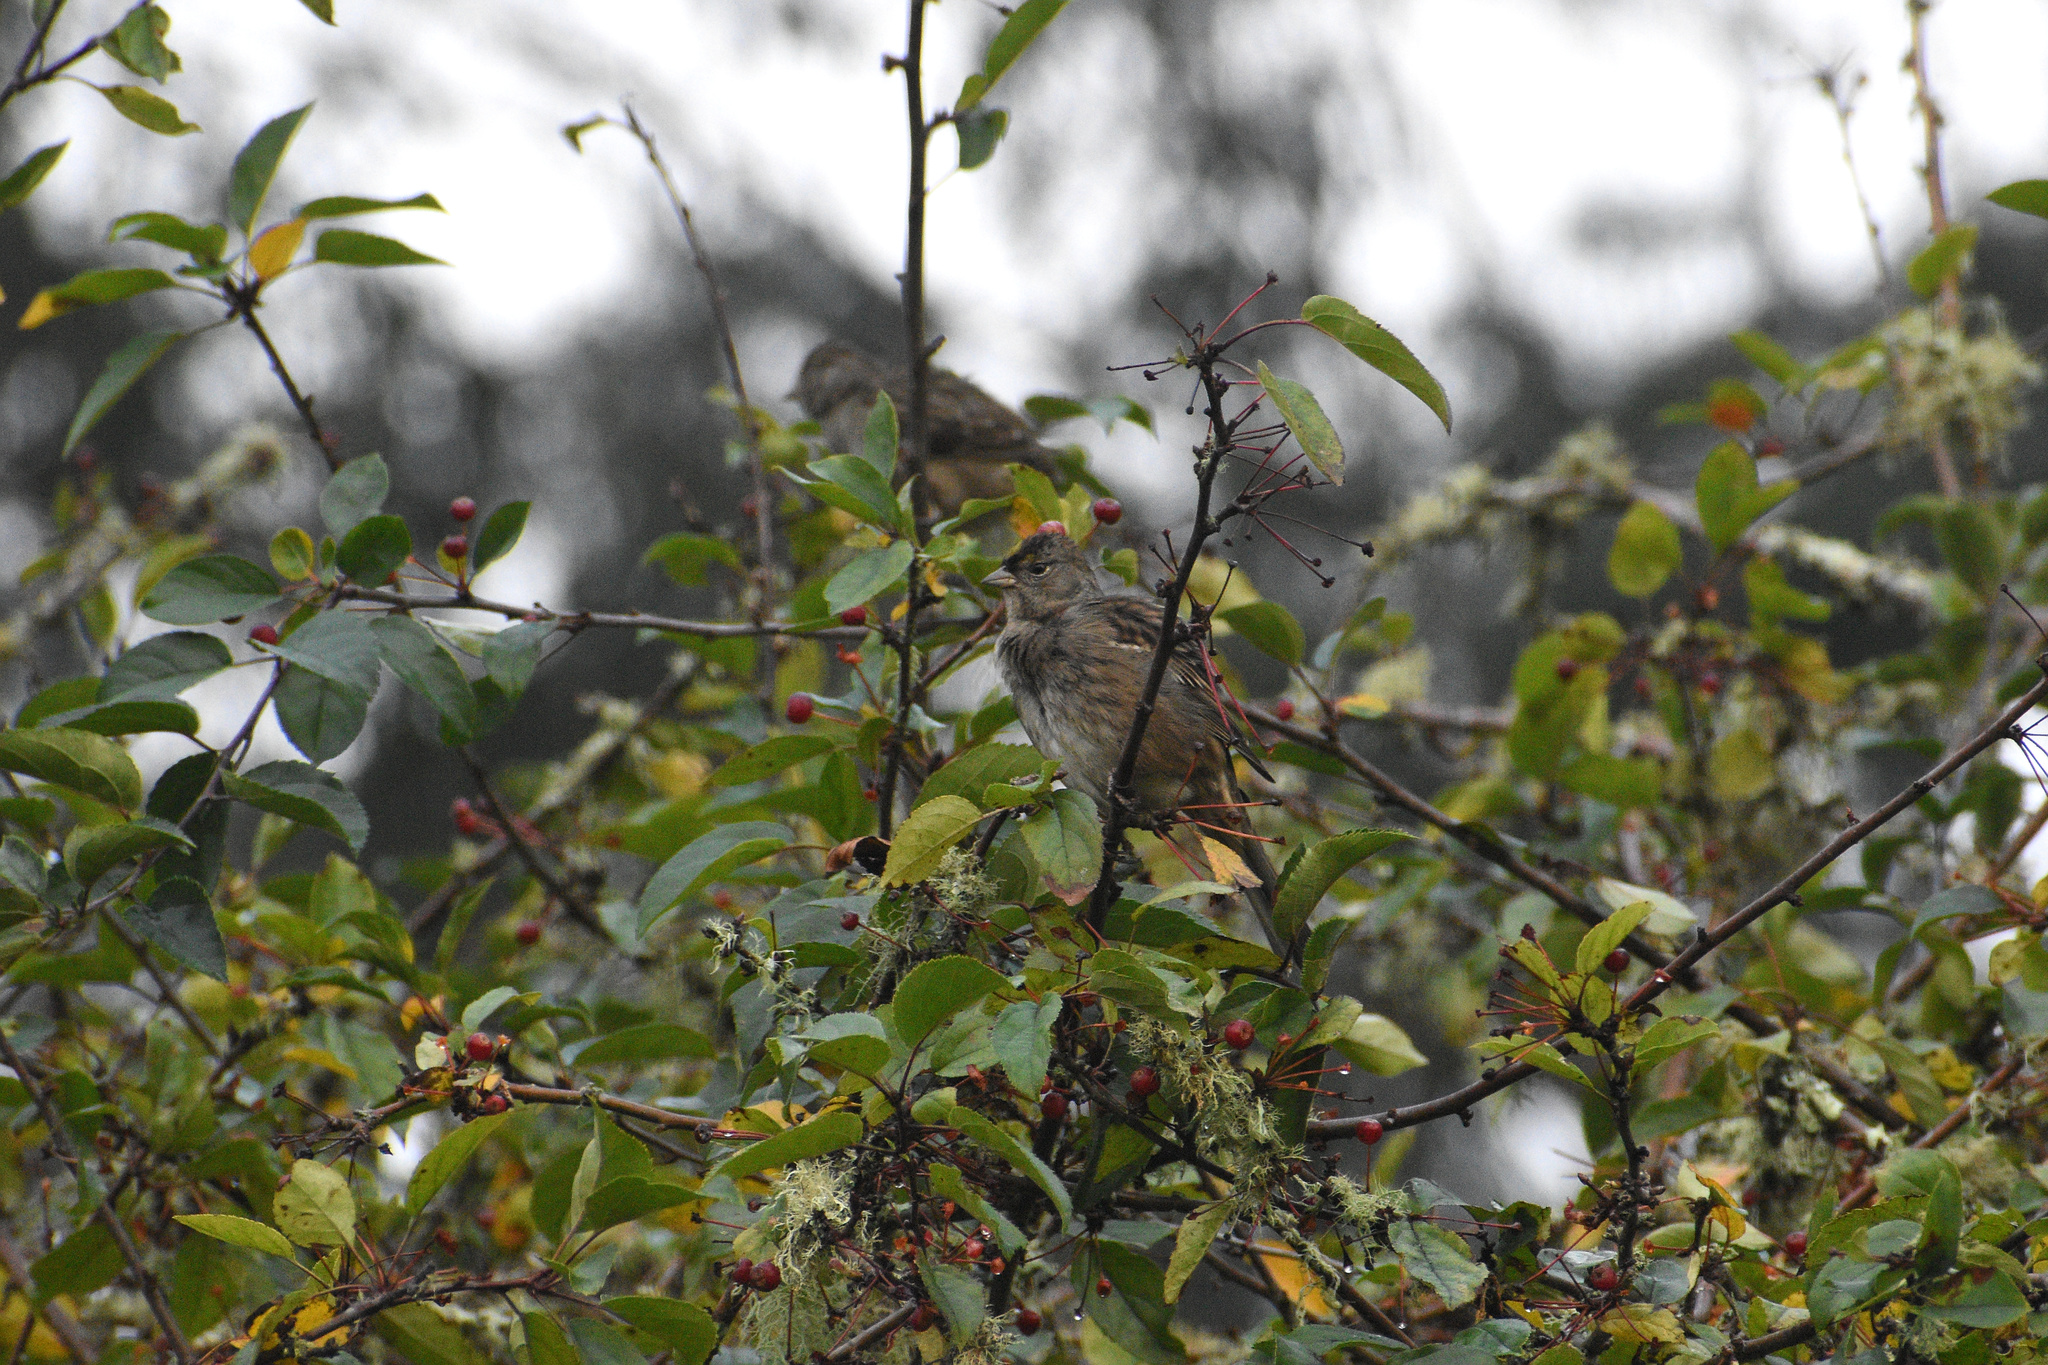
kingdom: Animalia
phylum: Chordata
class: Aves
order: Passeriformes
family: Passerellidae
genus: Zonotrichia
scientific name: Zonotrichia atricapilla
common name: Golden-crowned sparrow
